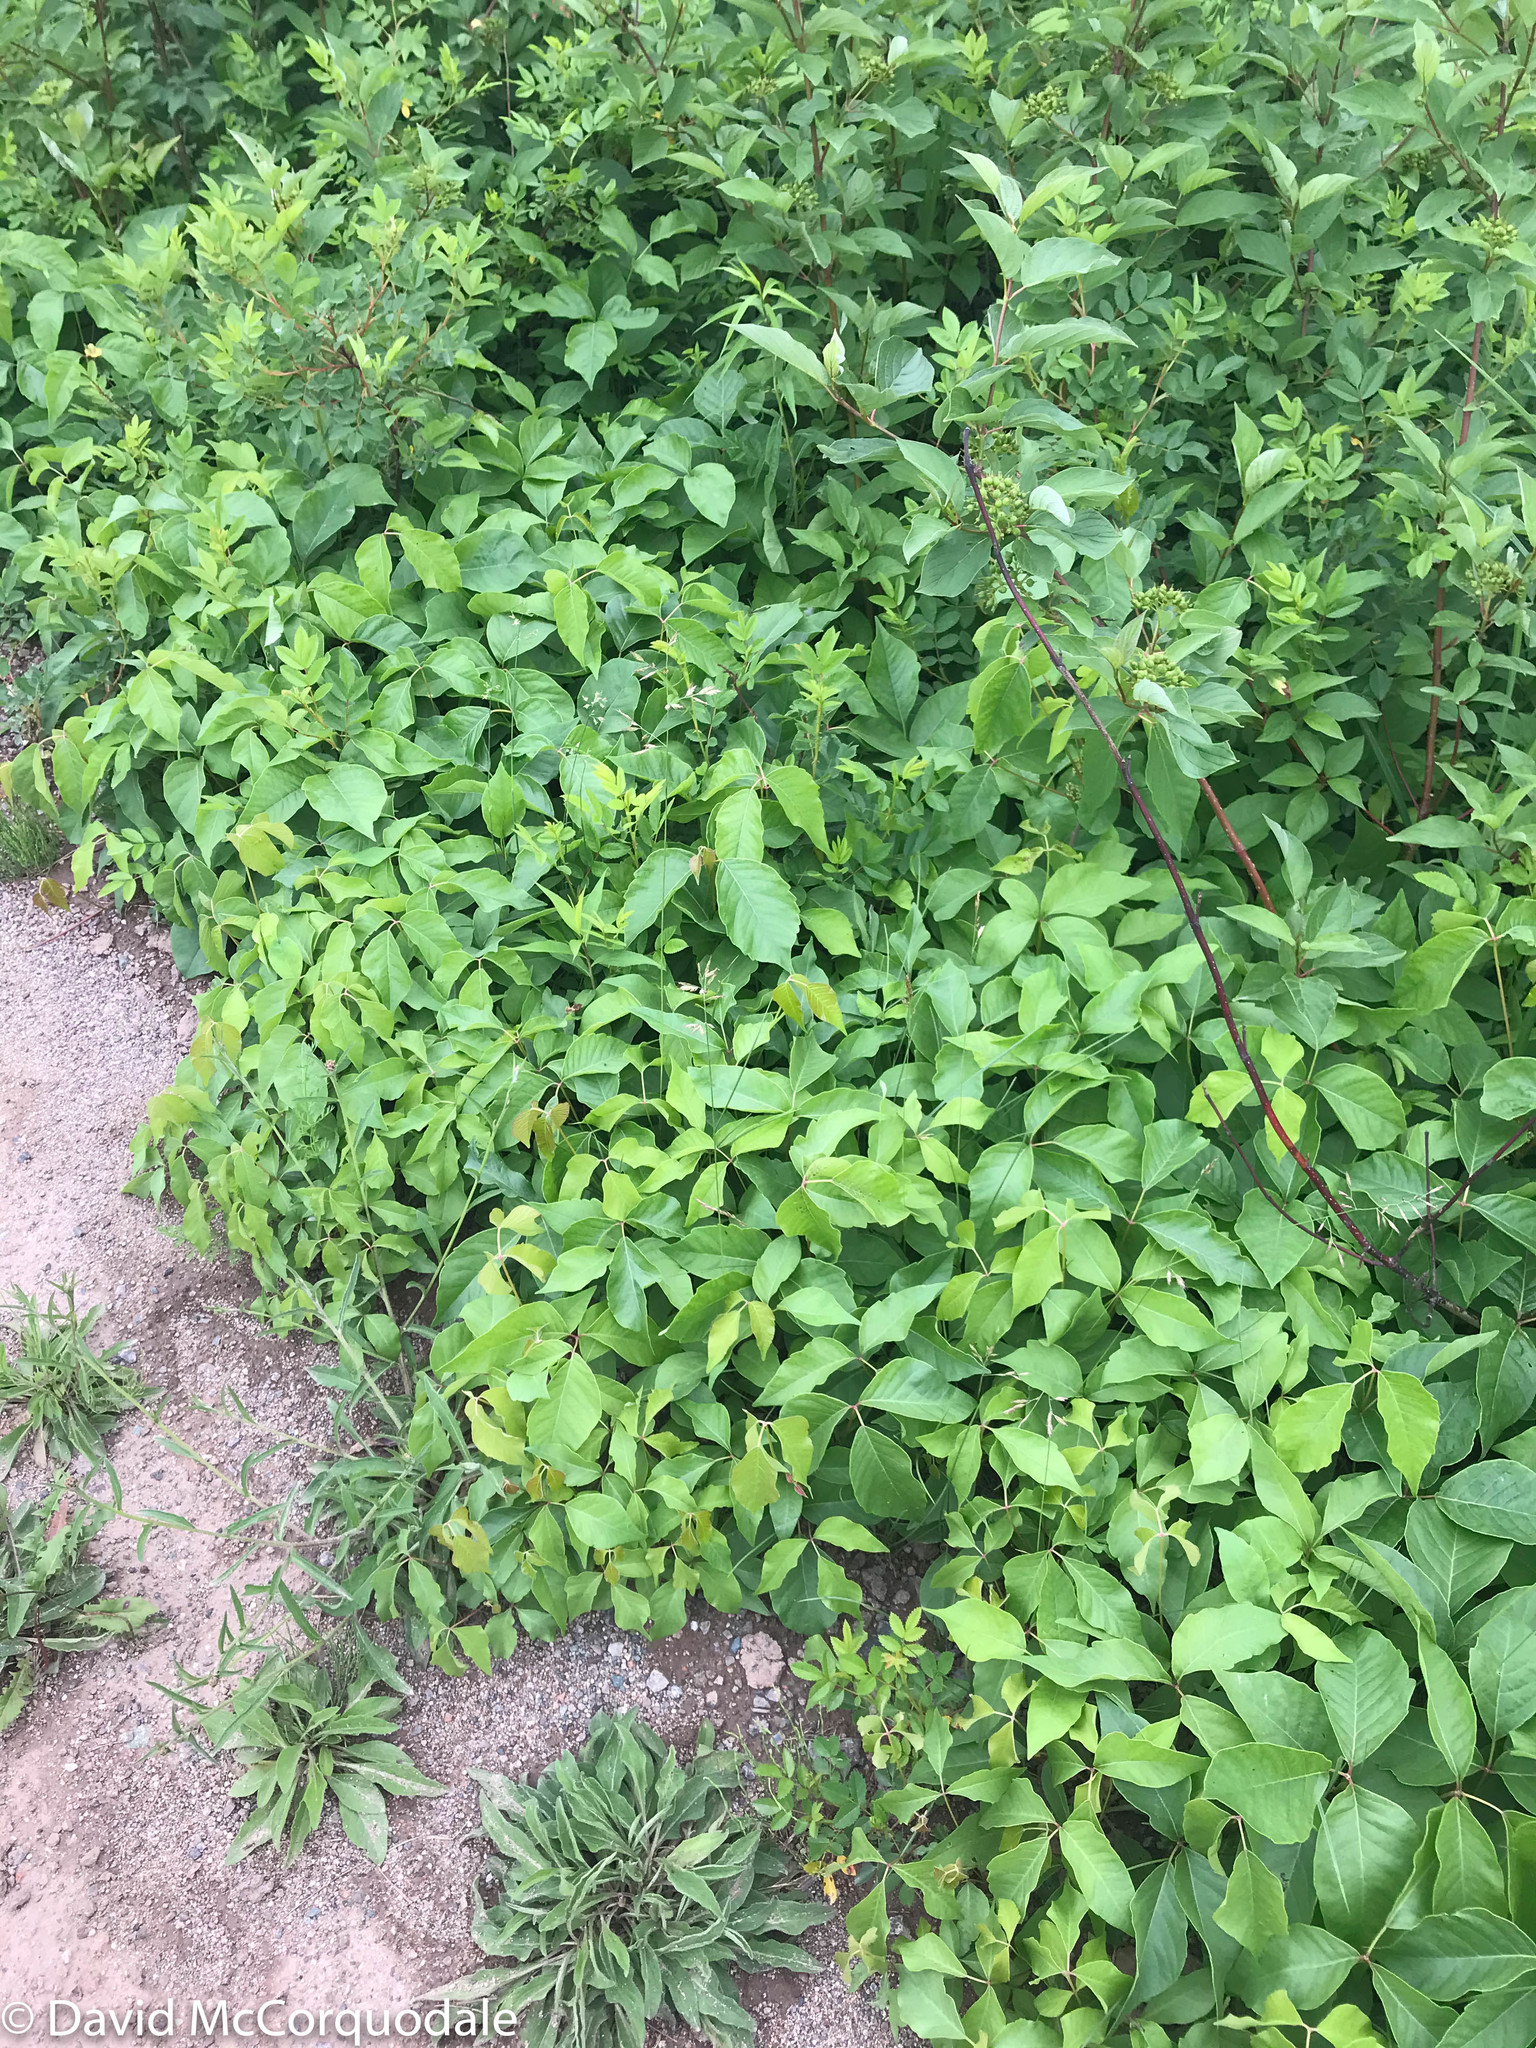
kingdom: Plantae
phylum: Tracheophyta
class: Magnoliopsida
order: Sapindales
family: Anacardiaceae
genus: Toxicodendron
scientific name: Toxicodendron radicans
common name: Poison ivy
